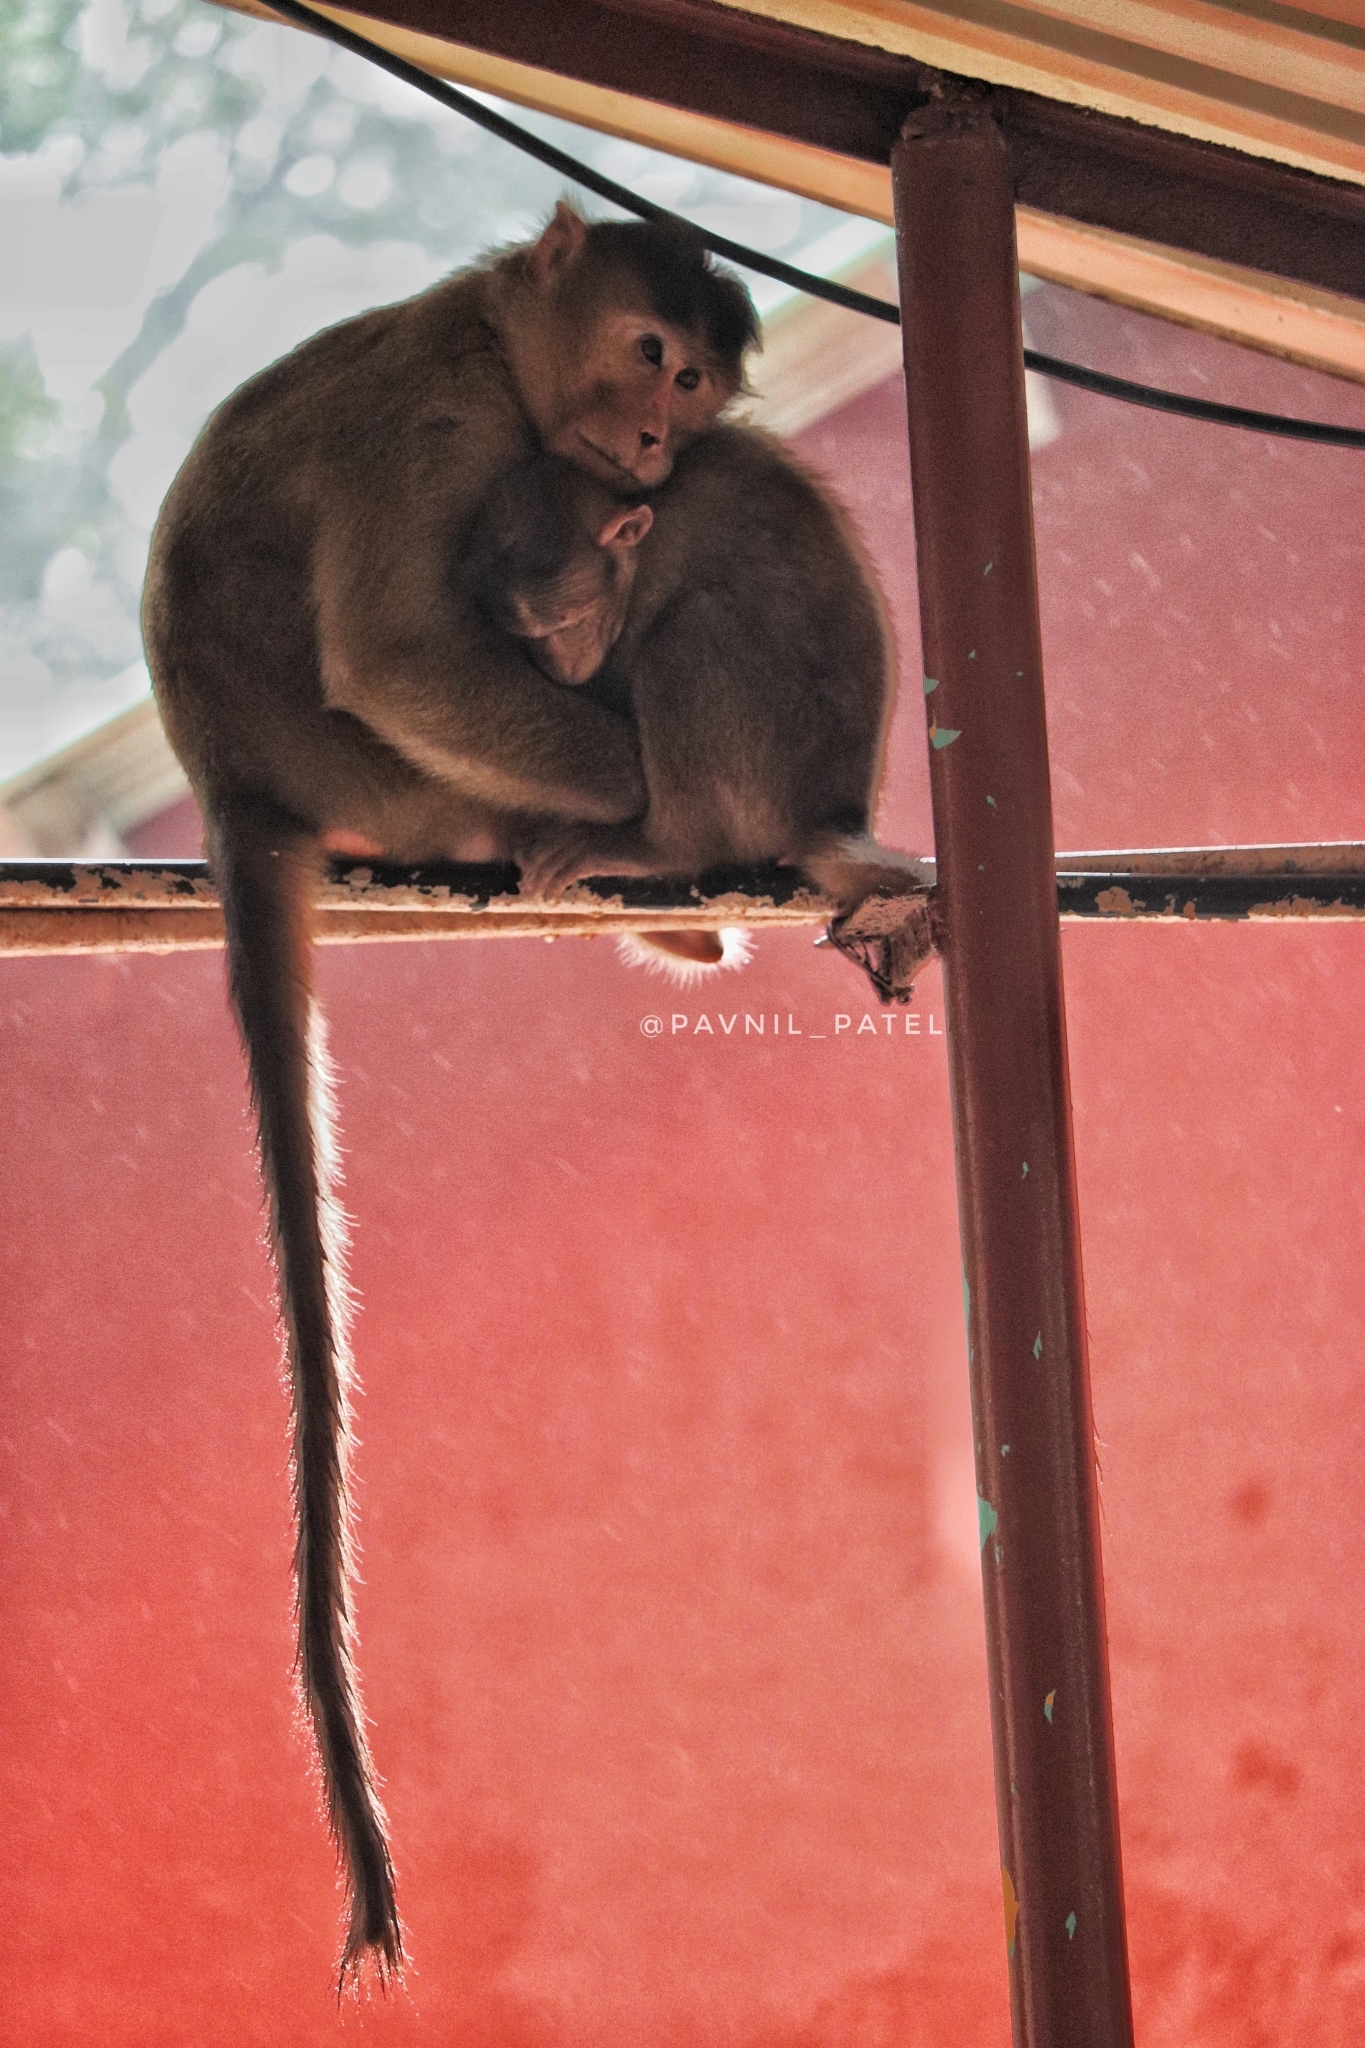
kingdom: Animalia
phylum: Chordata
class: Mammalia
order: Primates
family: Cercopithecidae
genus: Macaca
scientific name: Macaca radiata
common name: Bonnet macaque
